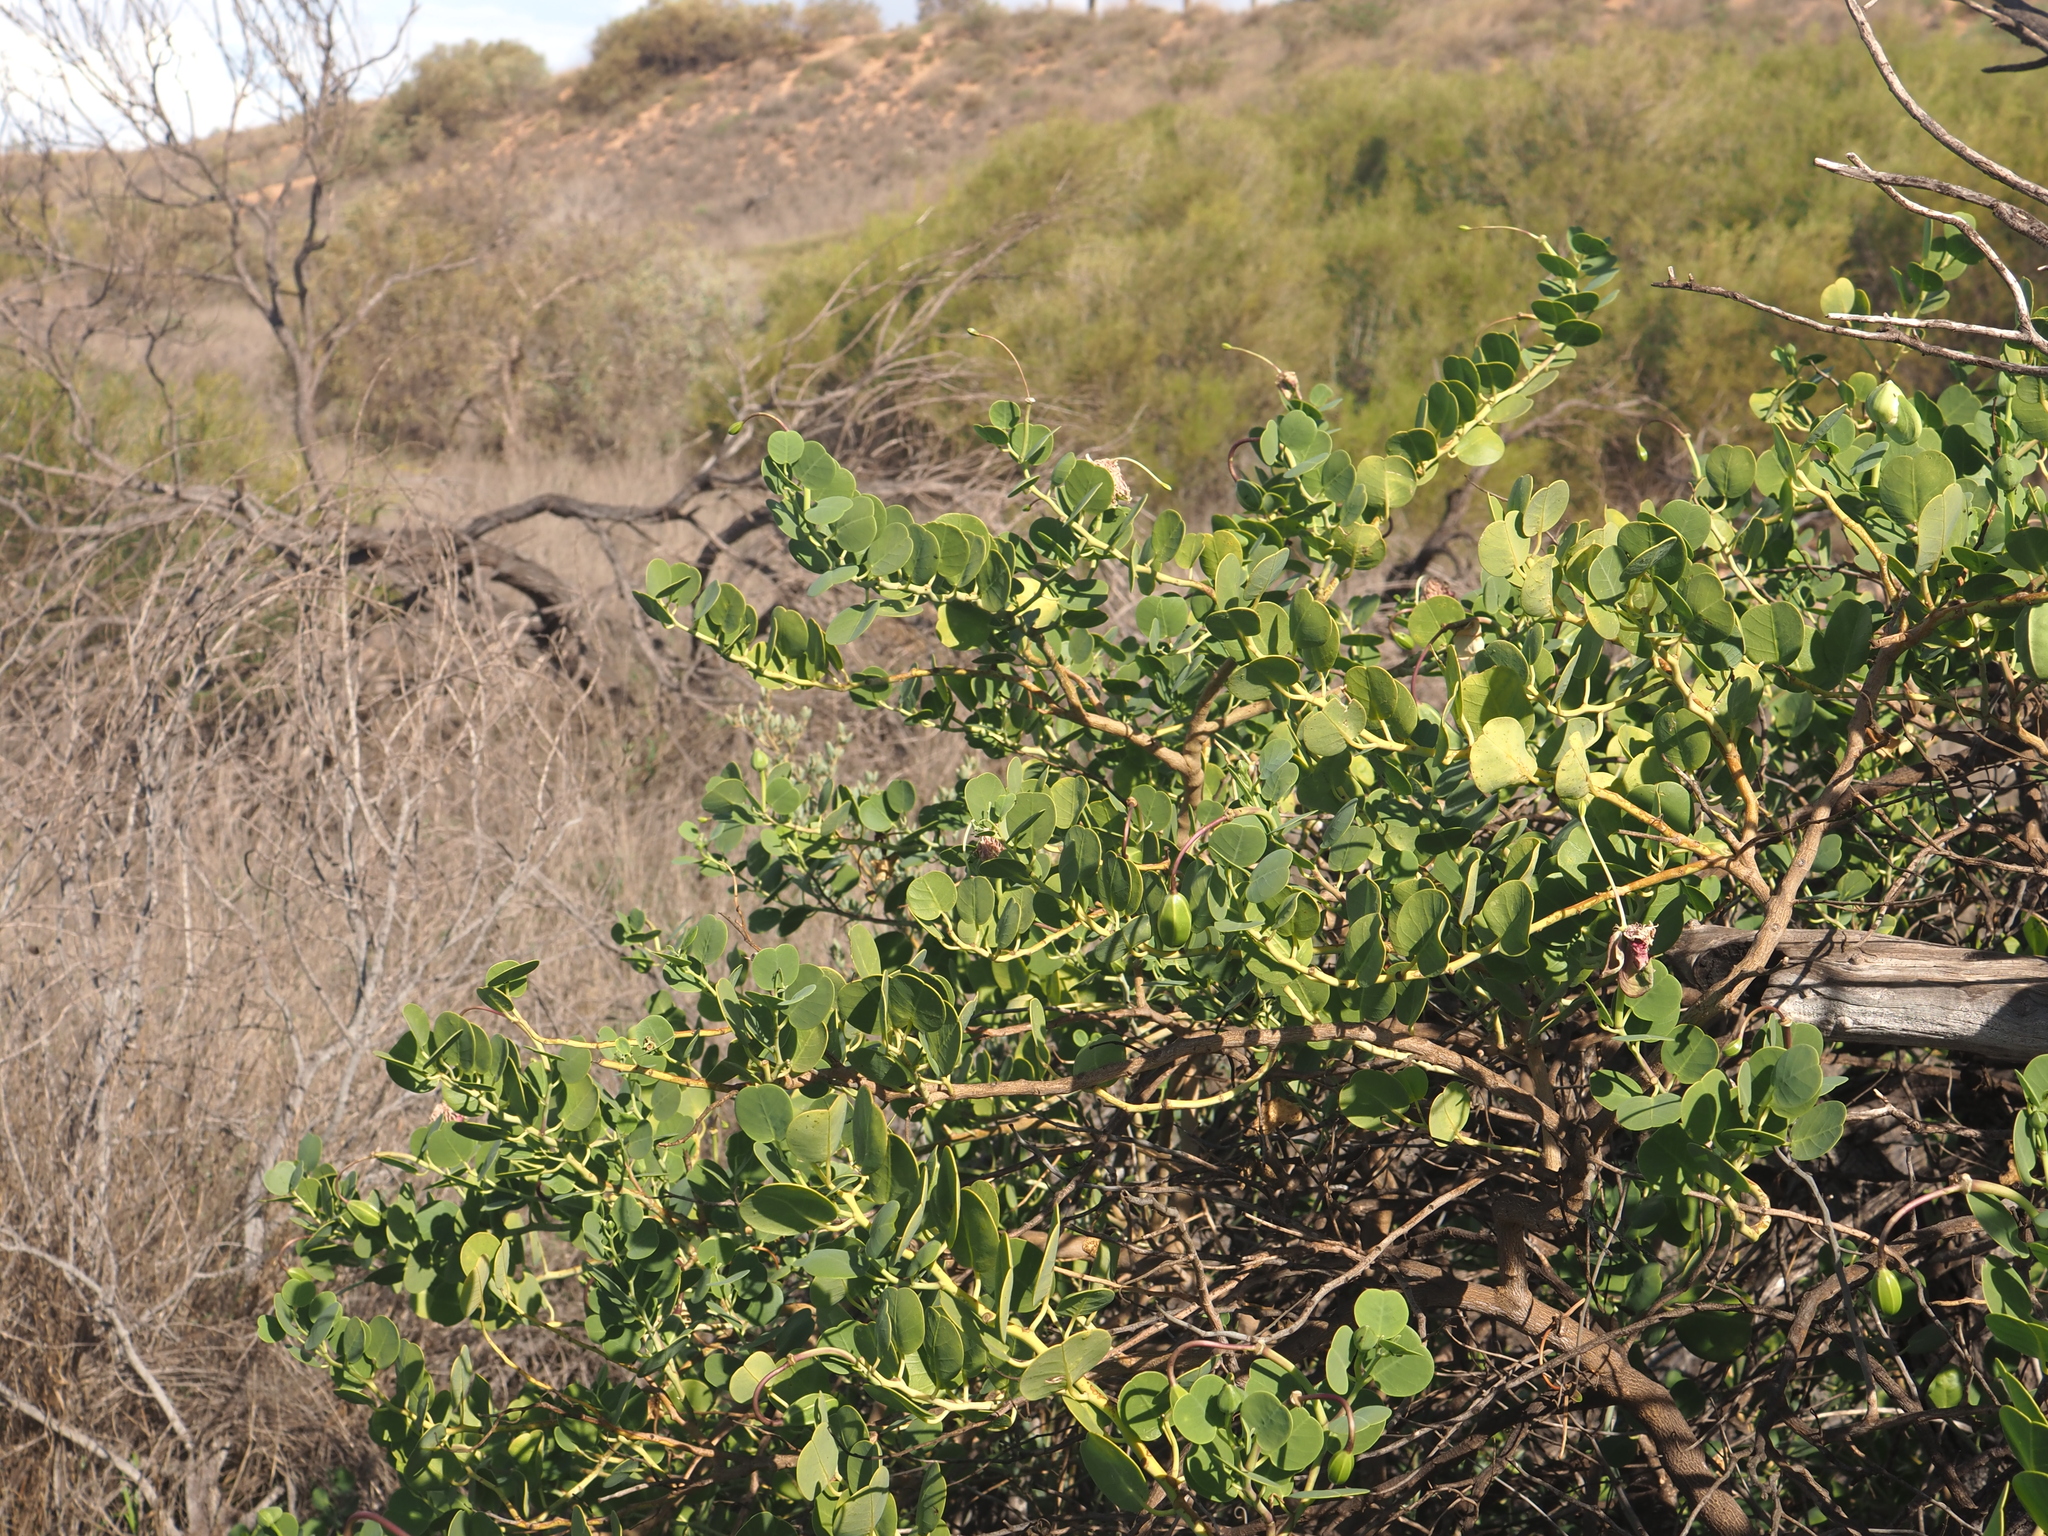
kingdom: Plantae
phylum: Tracheophyta
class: Magnoliopsida
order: Brassicales
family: Capparaceae
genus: Capparis
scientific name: Capparis spinosa
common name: Caper
